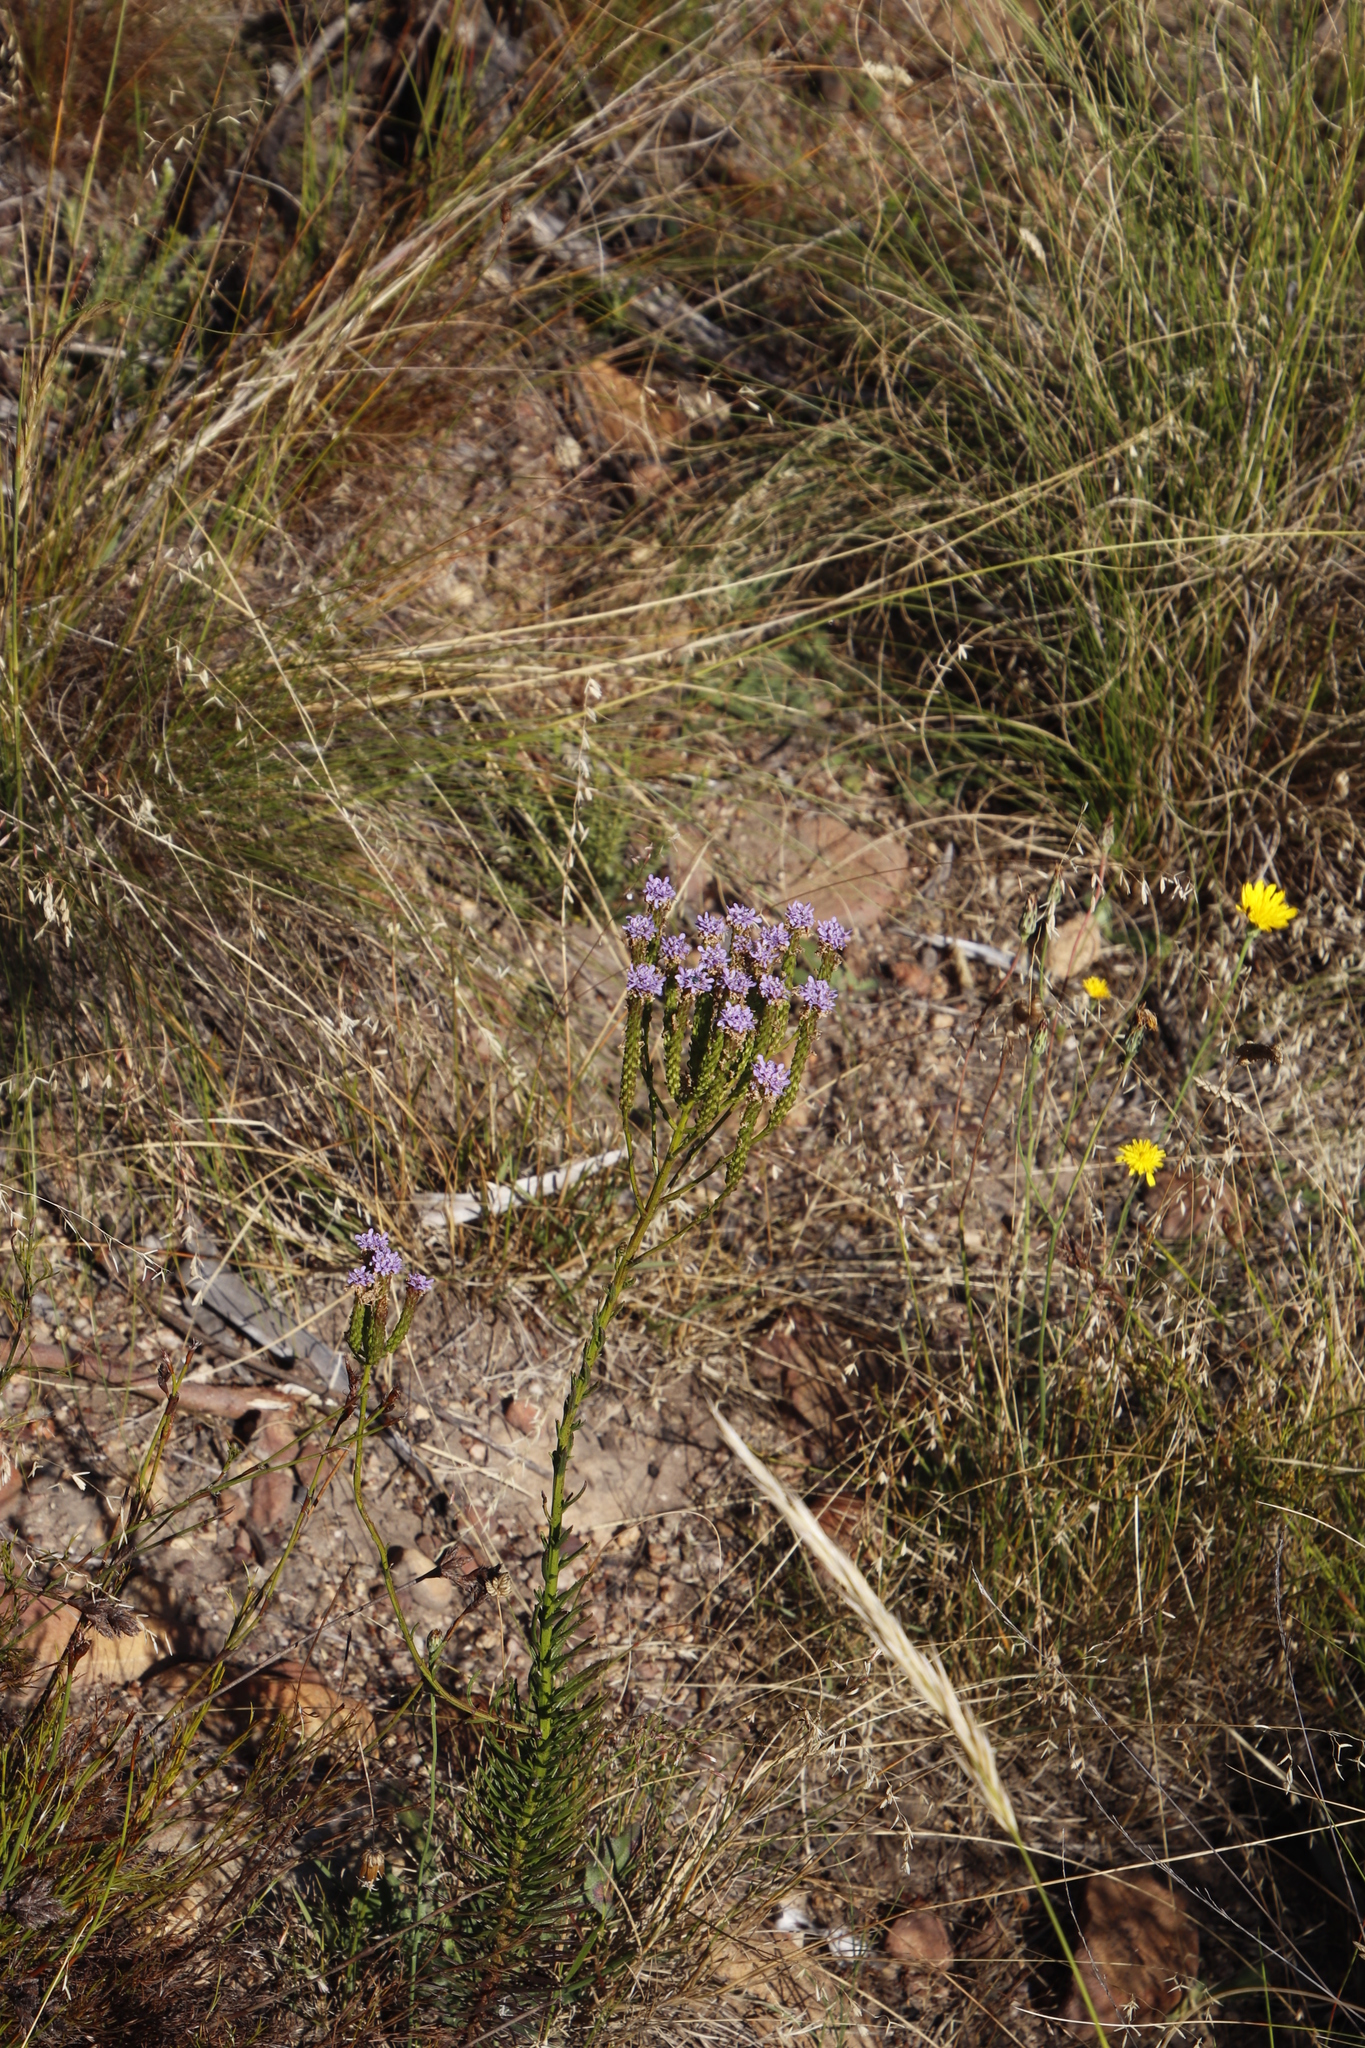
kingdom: Plantae
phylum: Tracheophyta
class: Magnoliopsida
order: Lamiales
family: Scrophulariaceae
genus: Pseudoselago
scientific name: Pseudoselago spuria
